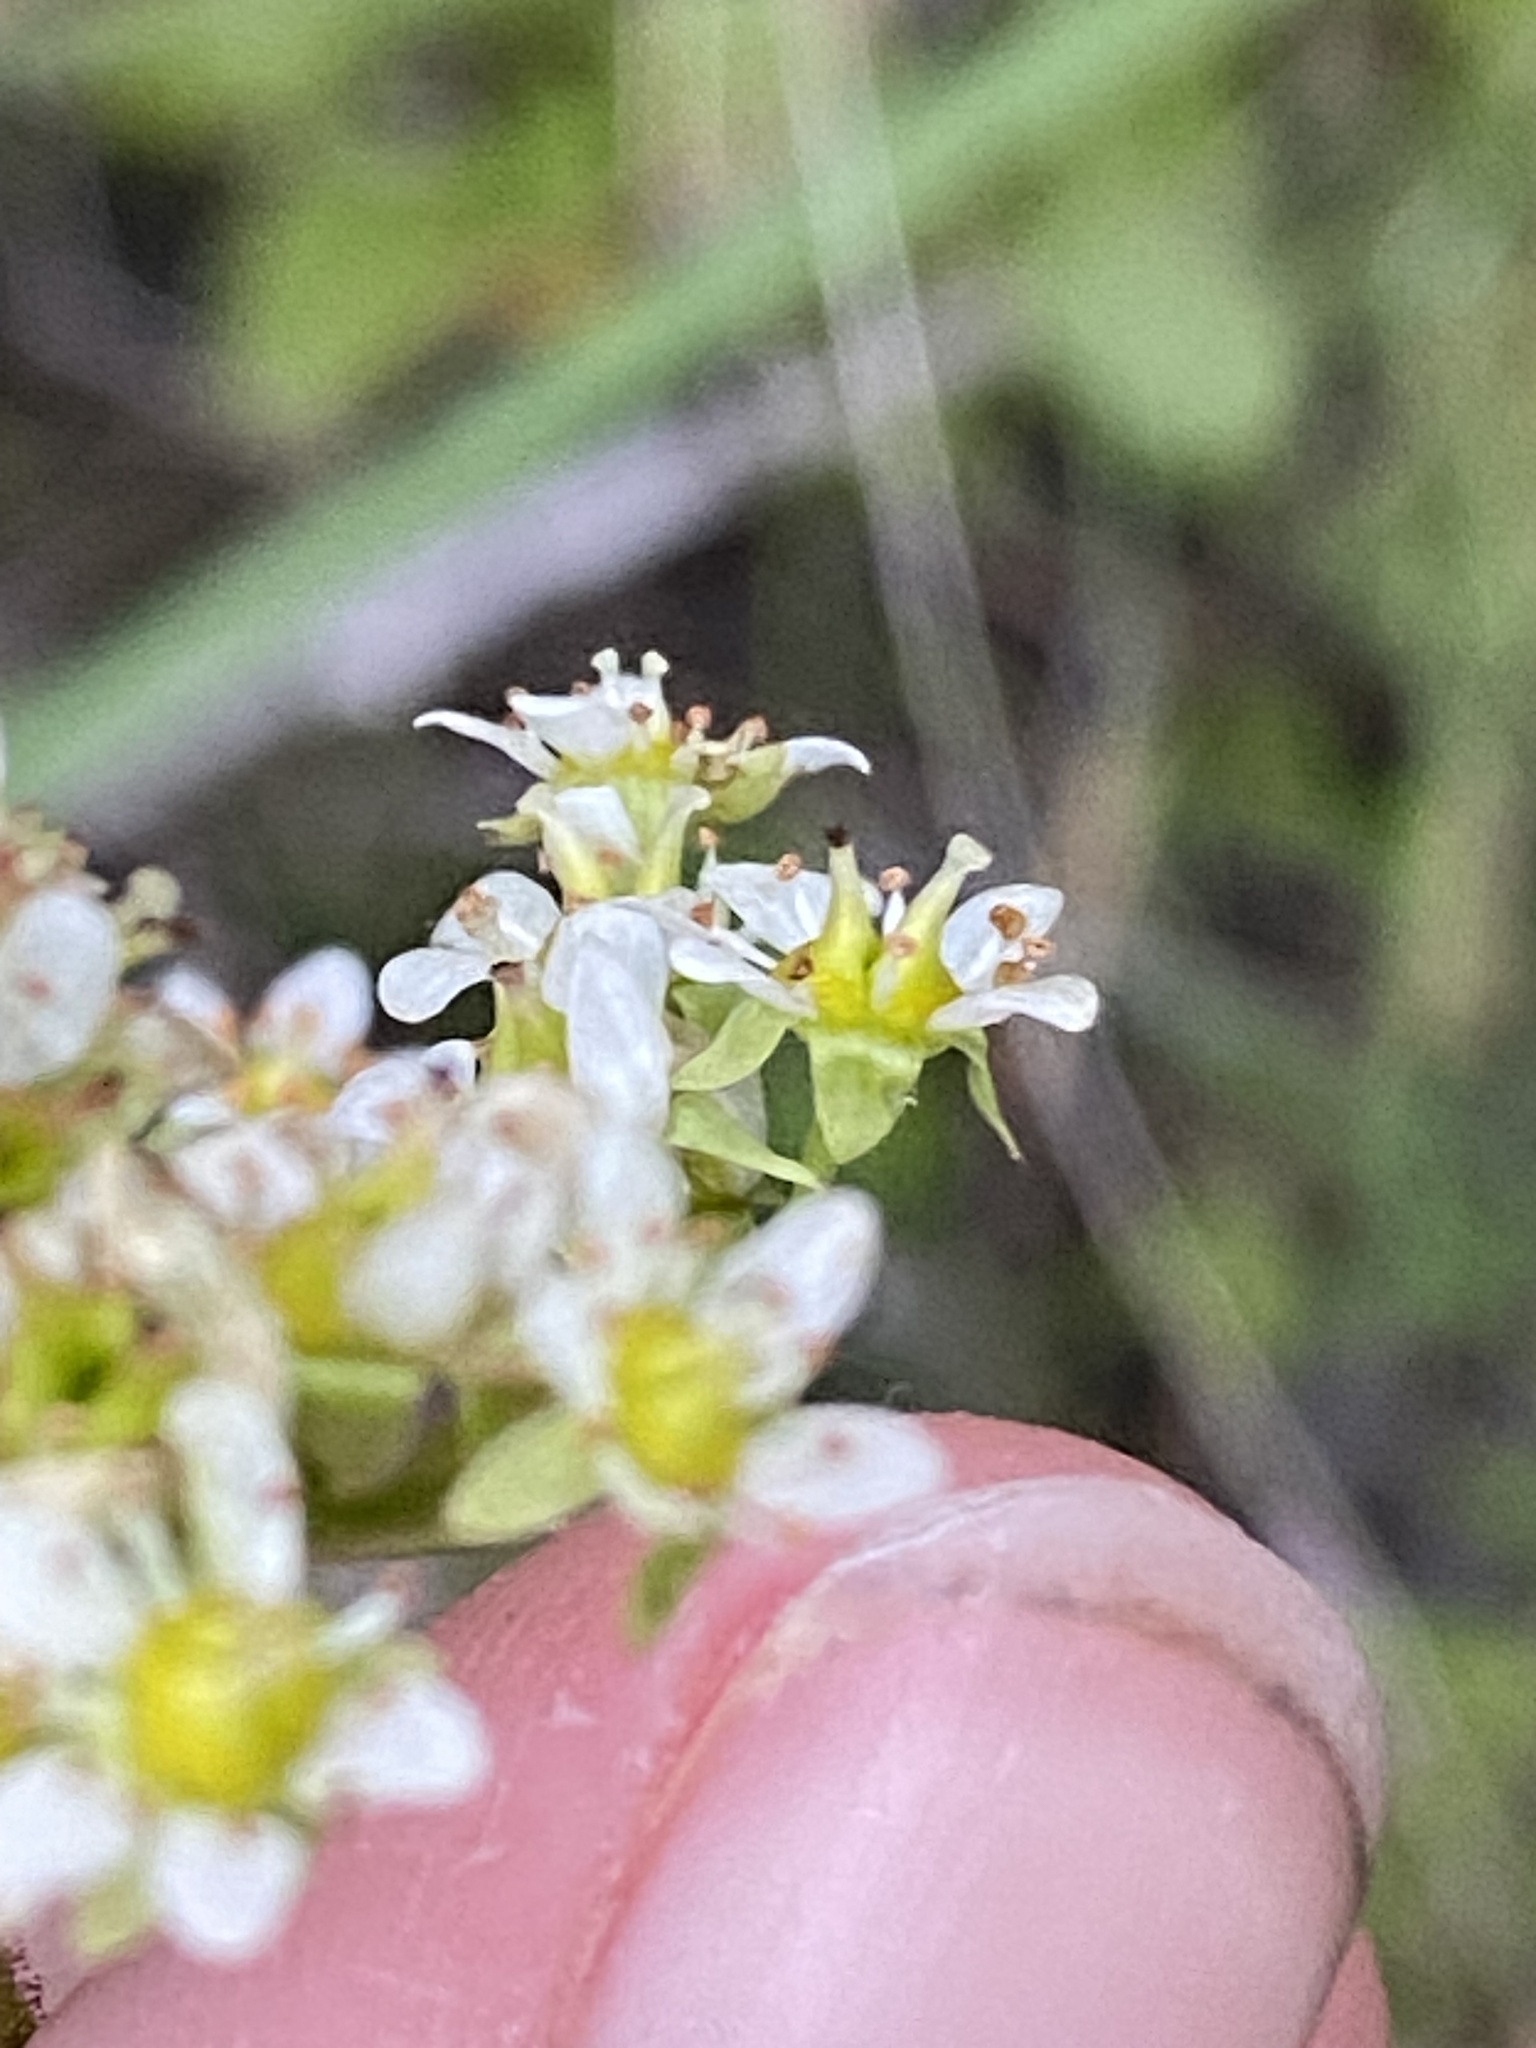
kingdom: Plantae
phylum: Tracheophyta
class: Magnoliopsida
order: Saxifragales
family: Saxifragaceae
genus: Micranthes
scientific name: Micranthes occidentalis
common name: Alberta saxifrage
